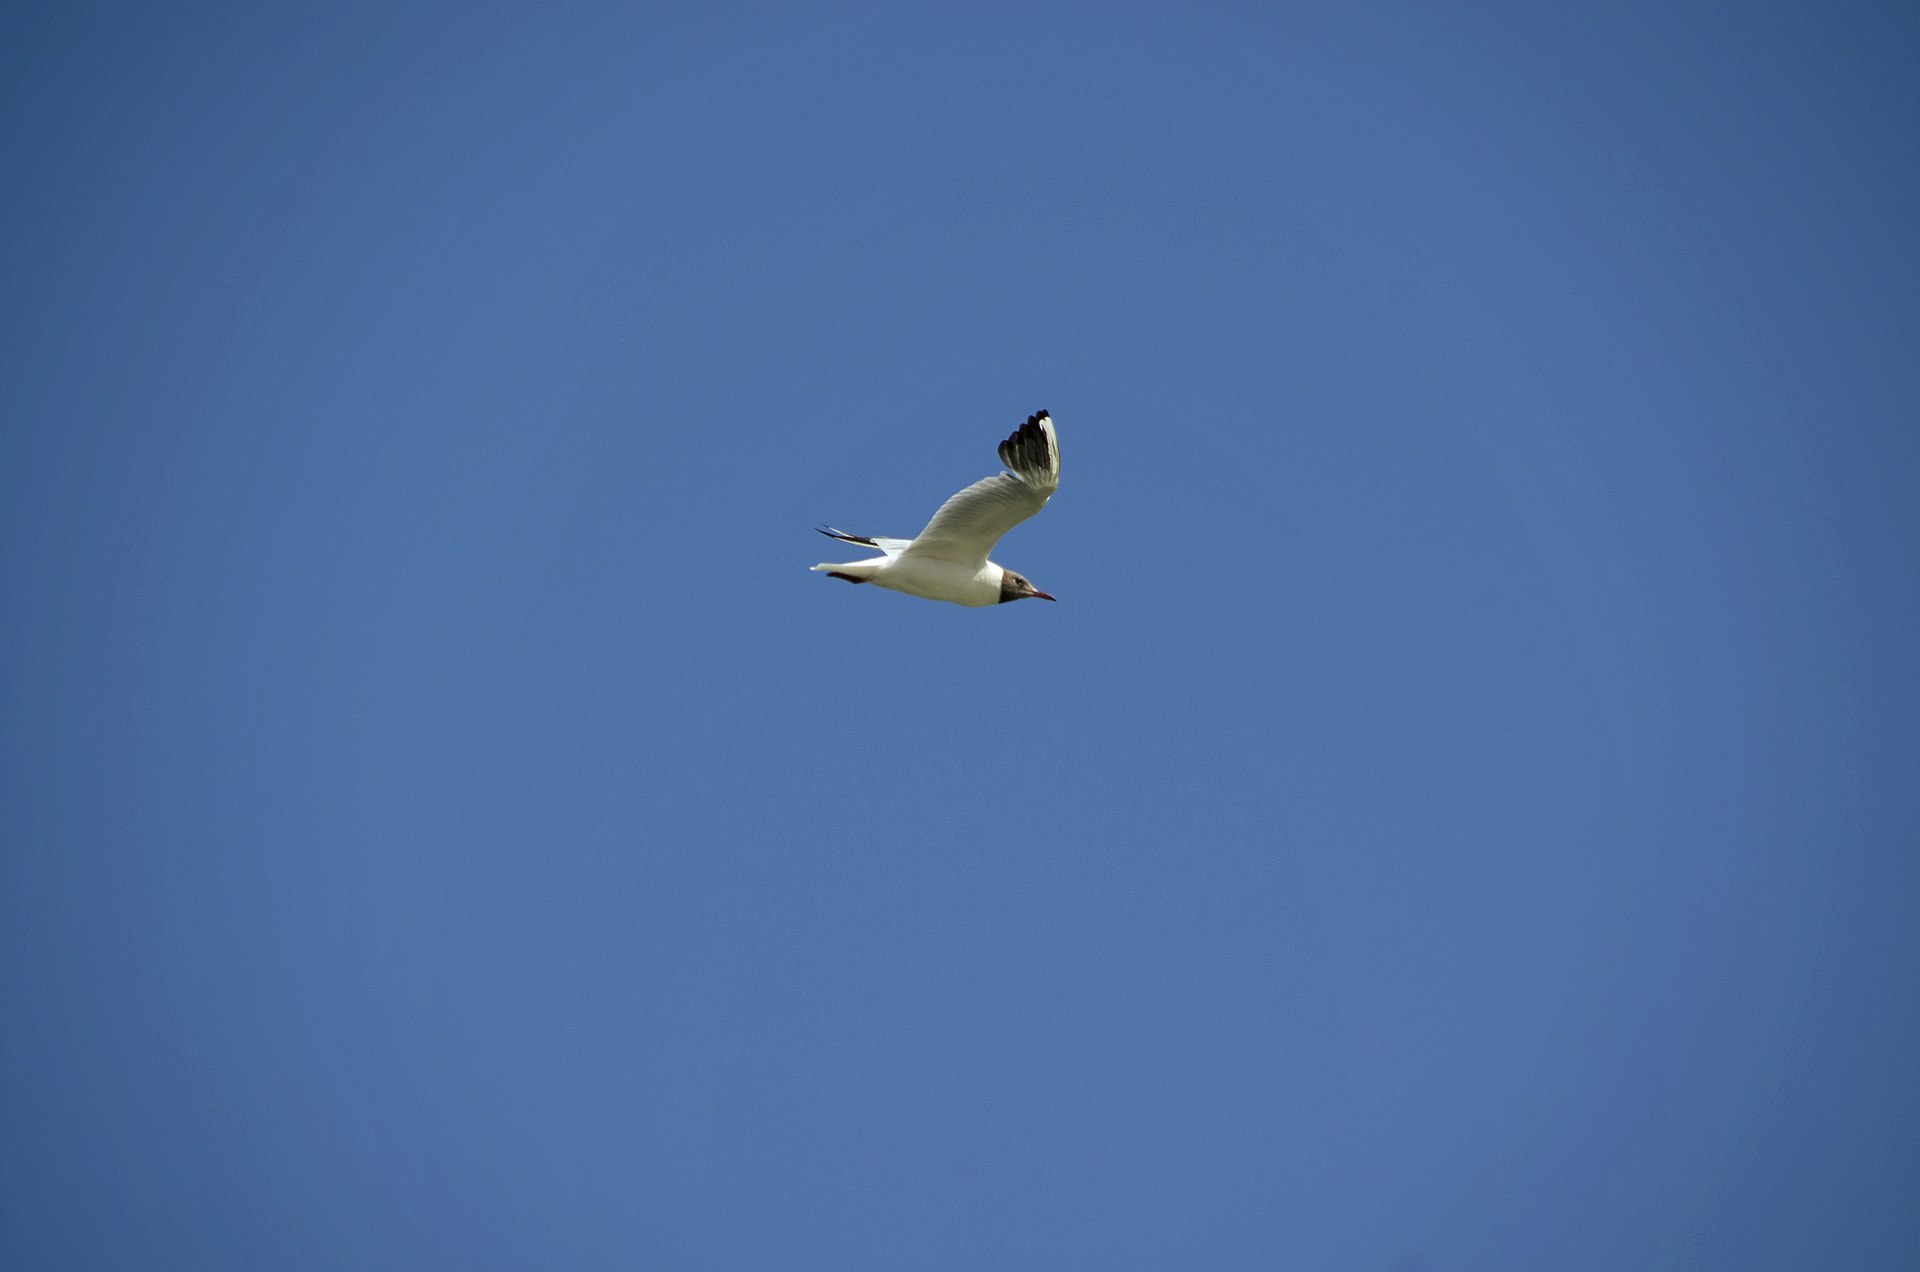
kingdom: Animalia
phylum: Chordata
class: Aves
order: Charadriiformes
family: Laridae
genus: Chroicocephalus
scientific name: Chroicocephalus ridibundus
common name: Black-headed gull
